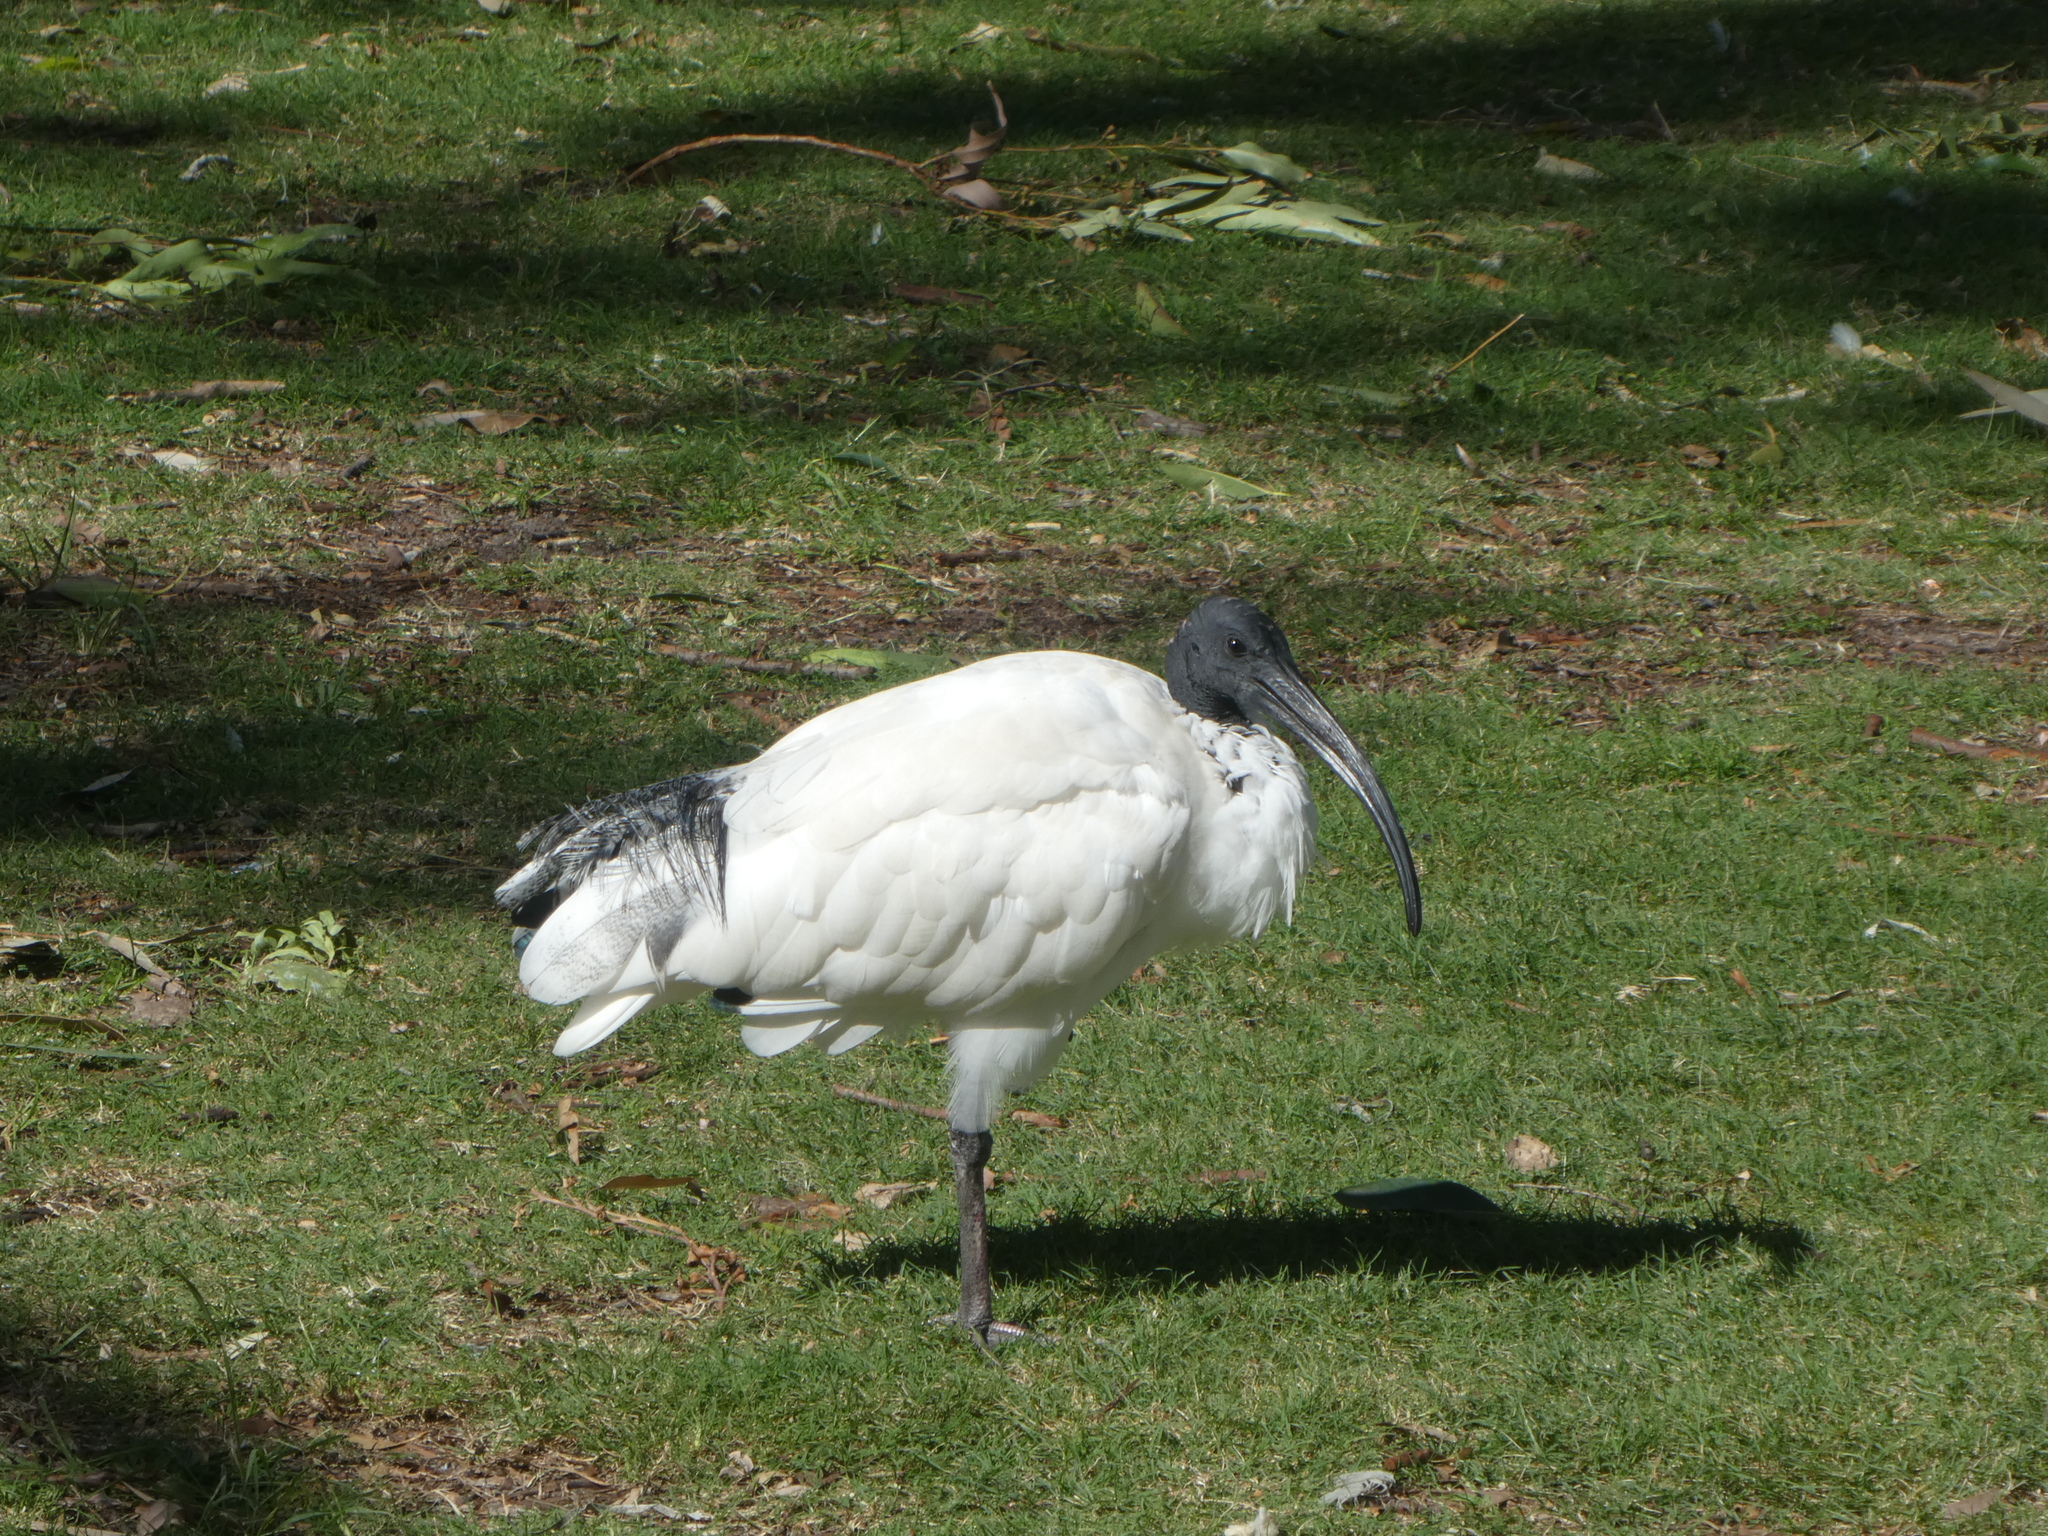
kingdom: Animalia
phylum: Chordata
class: Aves
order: Pelecaniformes
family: Threskiornithidae
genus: Threskiornis
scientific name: Threskiornis molucca
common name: Australian white ibis
